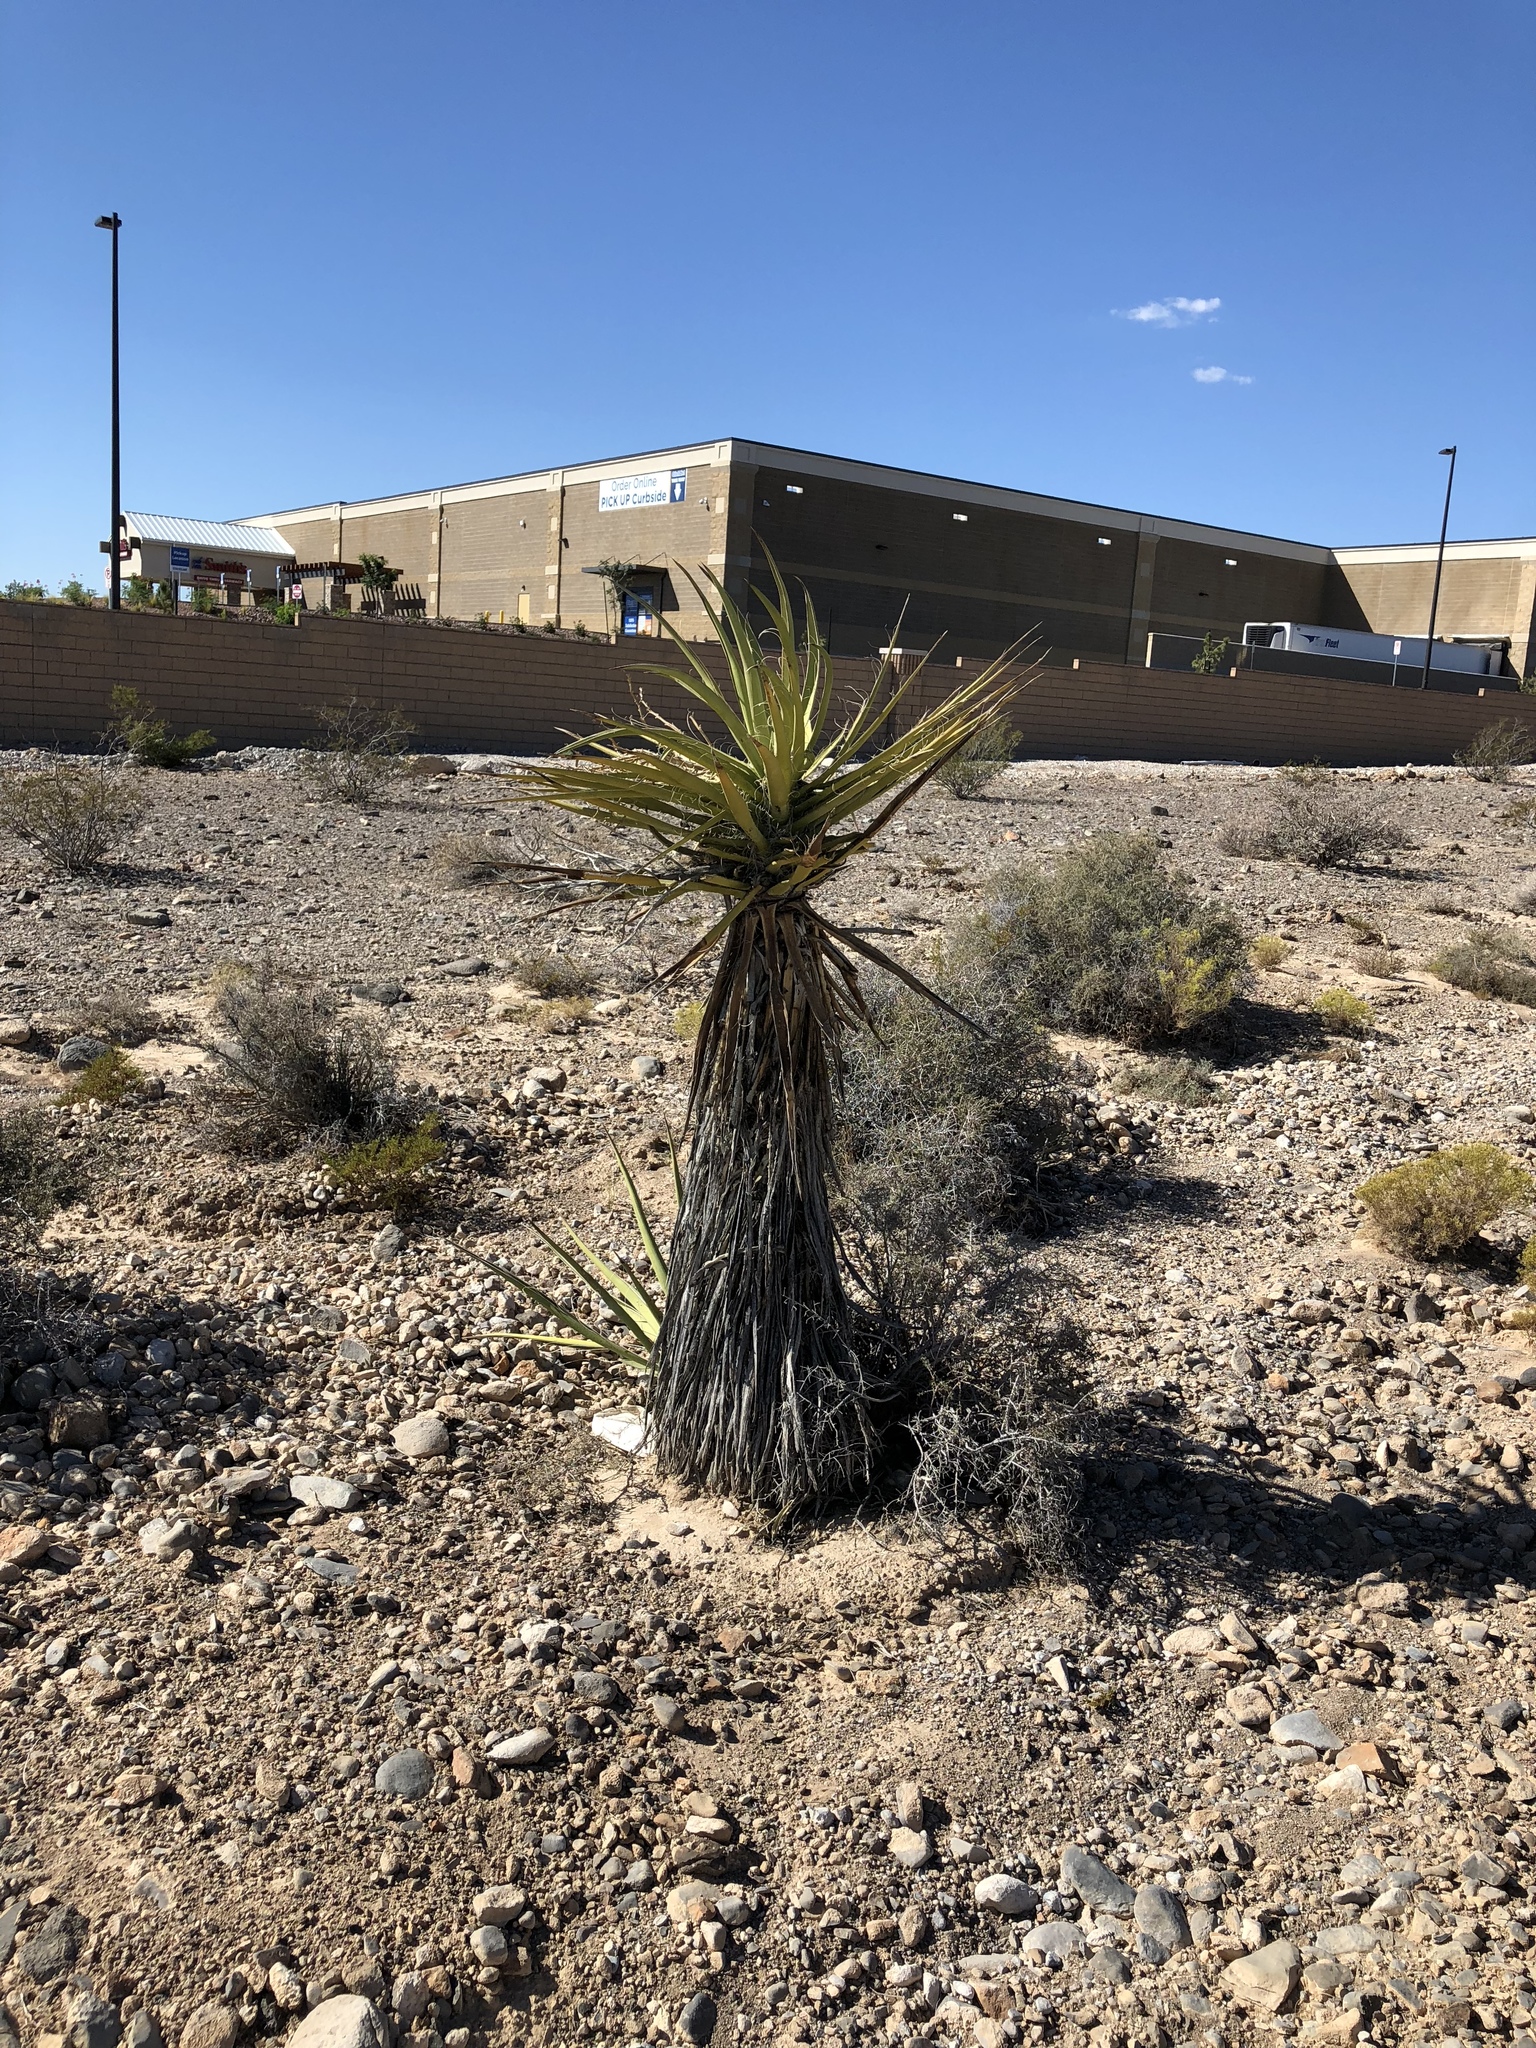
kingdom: Plantae
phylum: Tracheophyta
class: Liliopsida
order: Asparagales
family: Asparagaceae
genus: Yucca
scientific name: Yucca schidigera
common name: Mojave yucca
